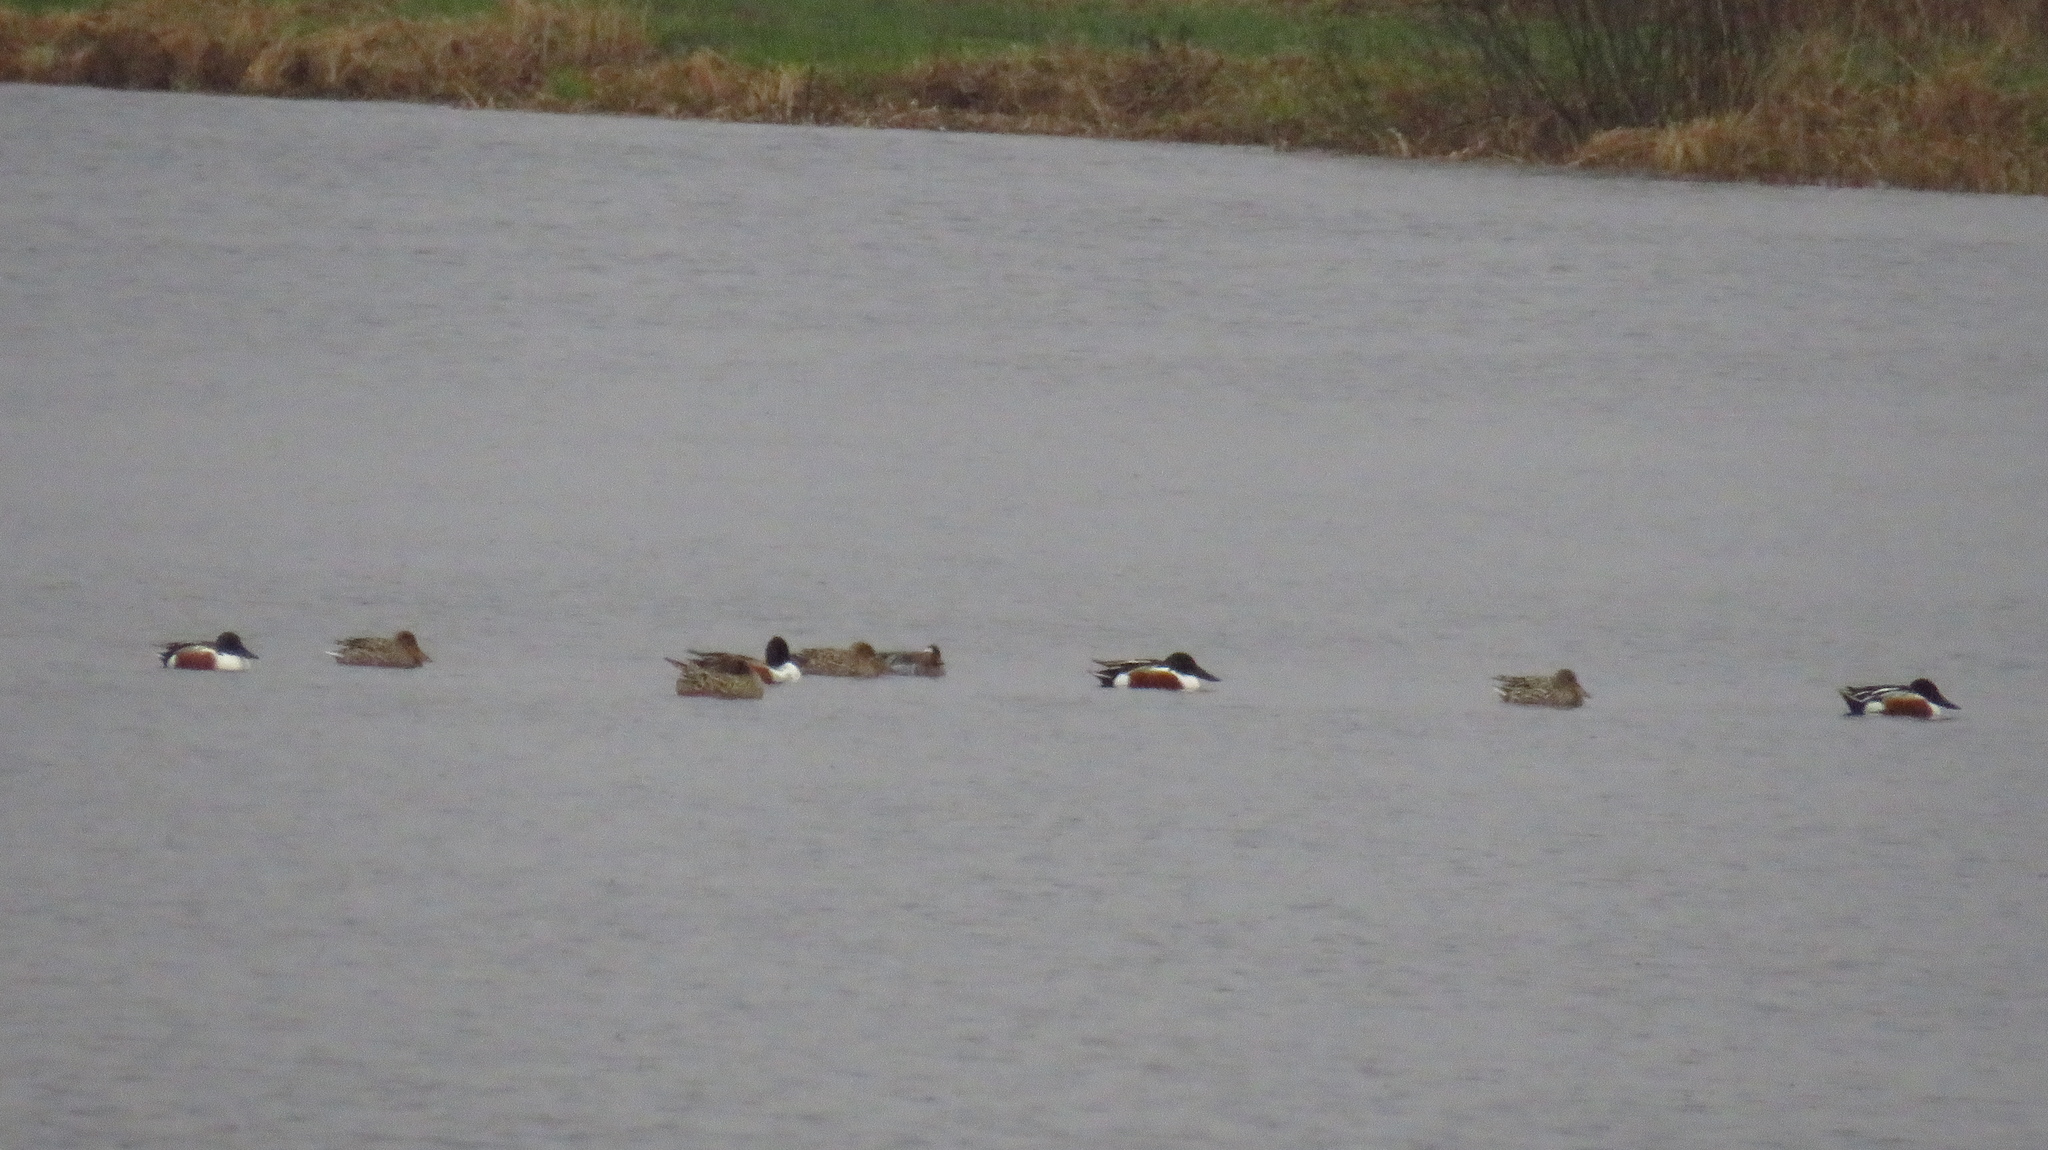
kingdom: Animalia
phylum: Chordata
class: Aves
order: Anseriformes
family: Anatidae
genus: Spatula
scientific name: Spatula clypeata
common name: Northern shoveler
